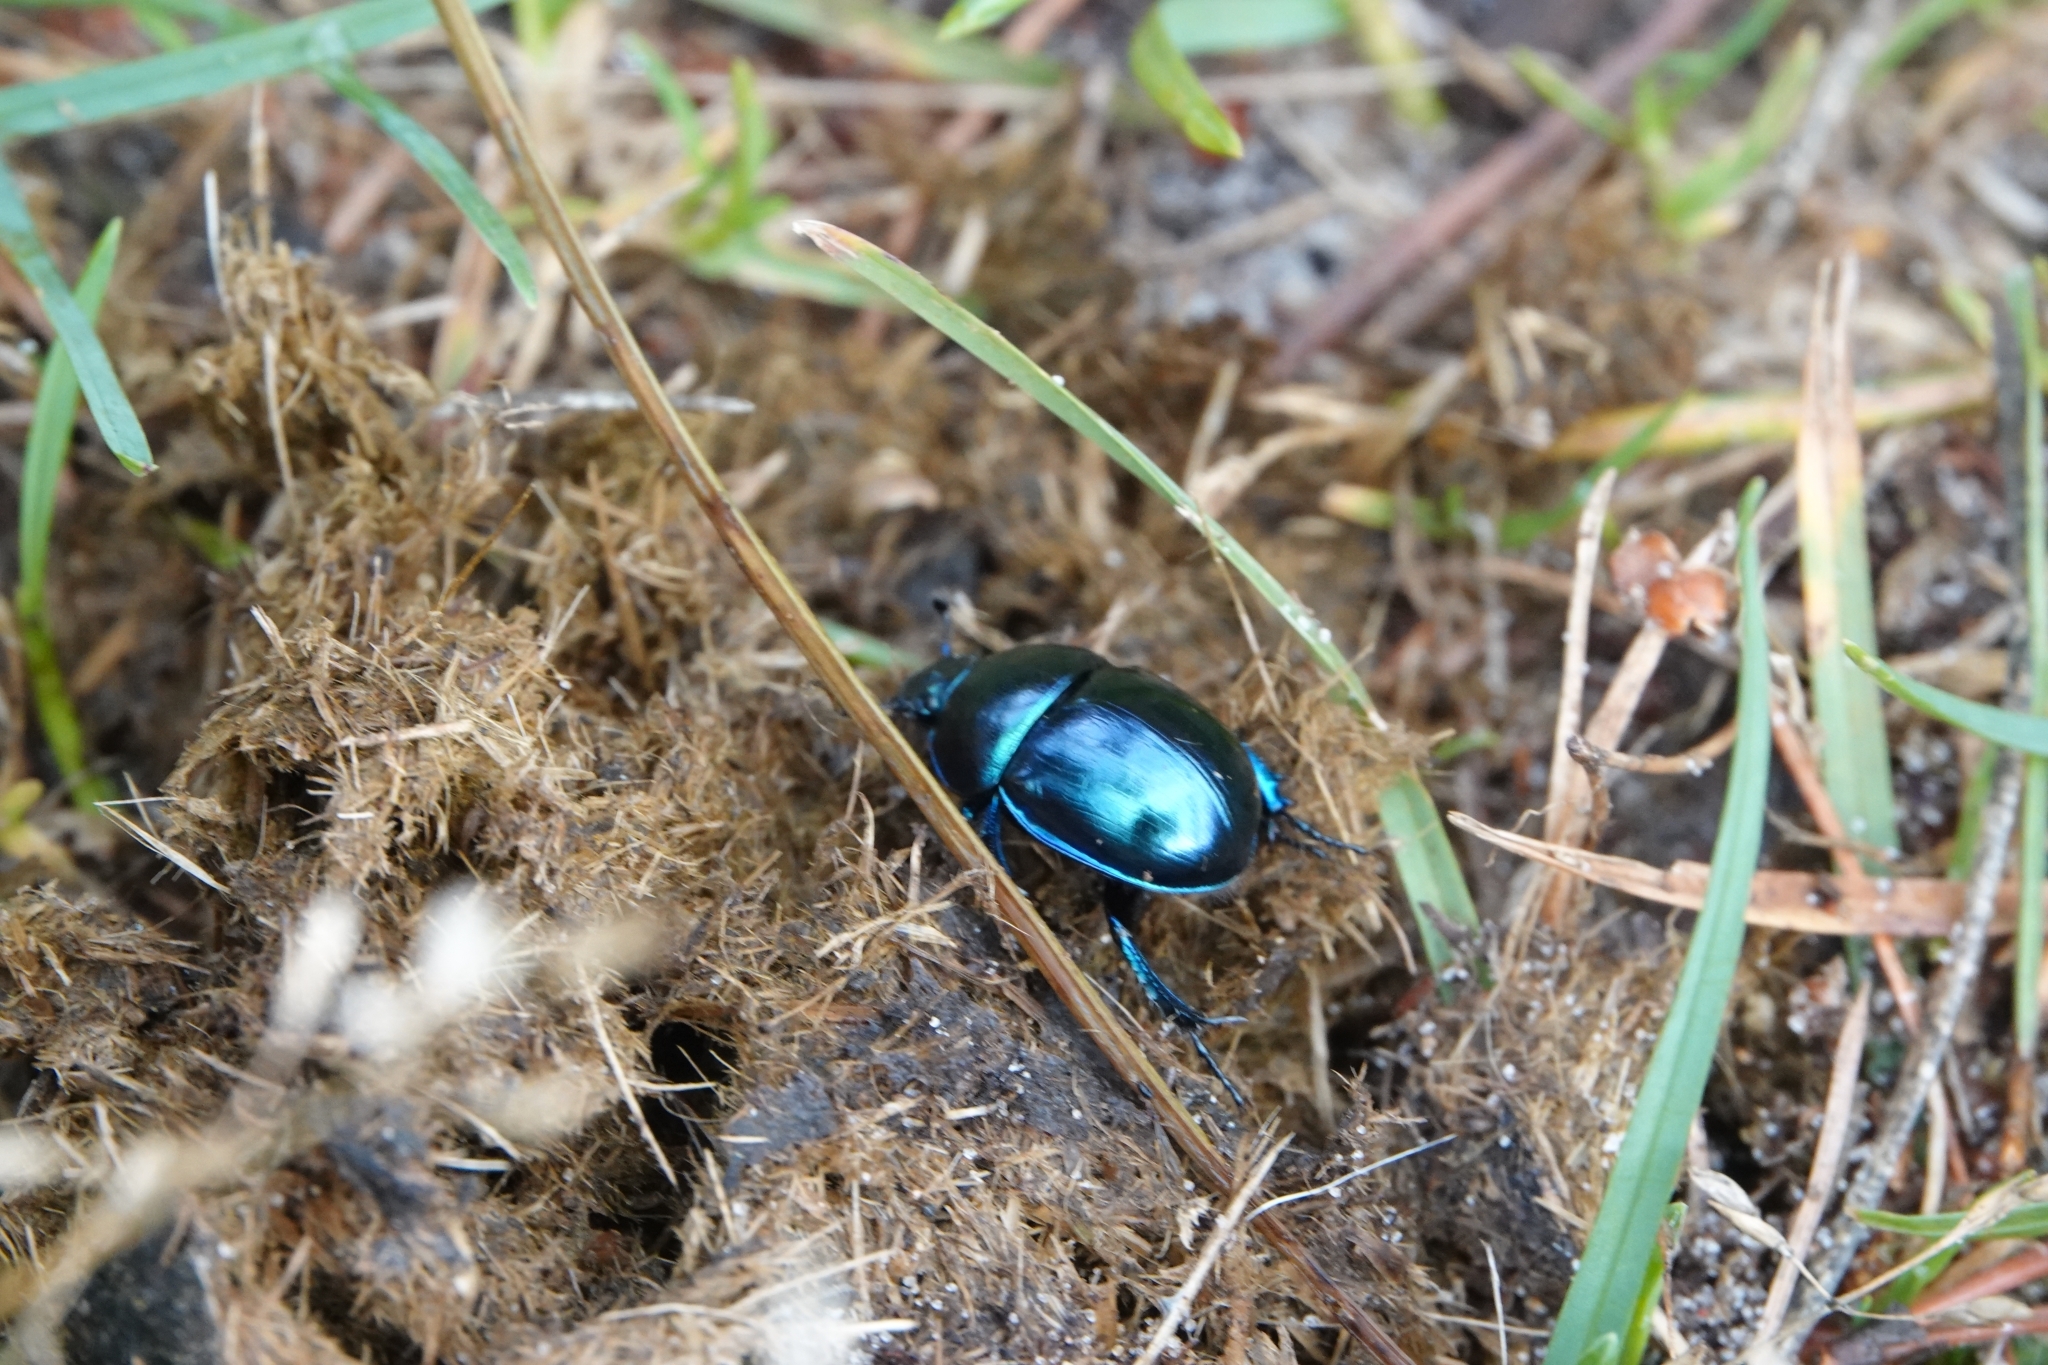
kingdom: Animalia
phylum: Arthropoda
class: Insecta
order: Coleoptera
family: Geotrupidae
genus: Trypocopris
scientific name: Trypocopris vernalis
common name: Spring dumbledor
